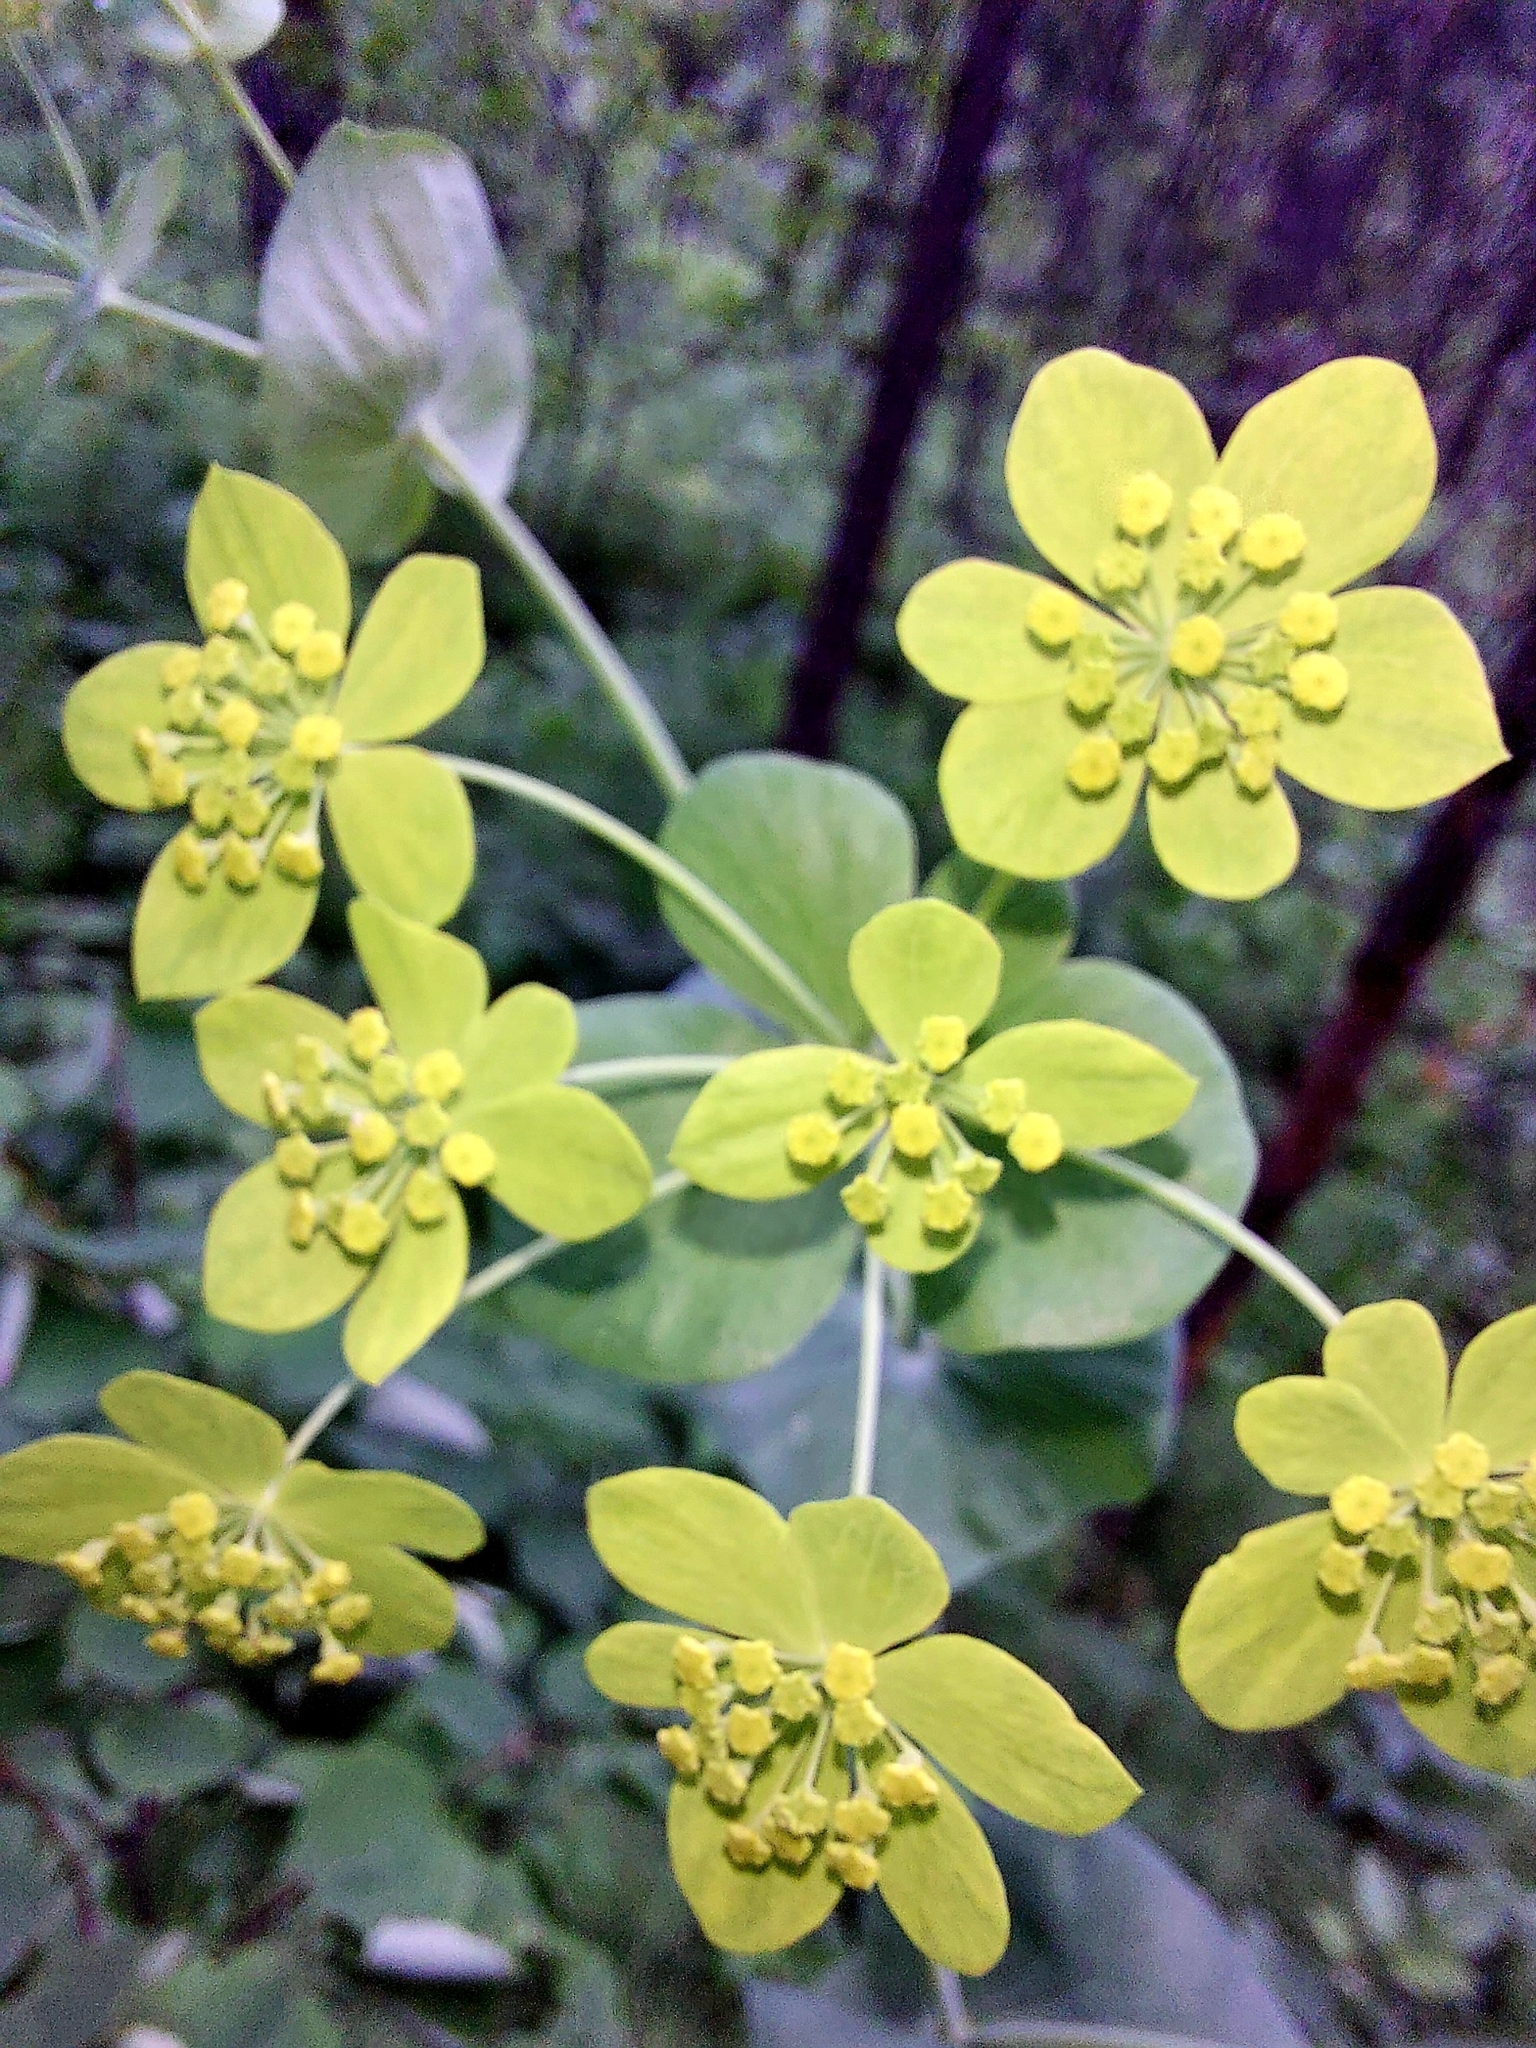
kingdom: Plantae
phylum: Tracheophyta
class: Magnoliopsida
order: Apiales
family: Apiaceae
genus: Bupleurum
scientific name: Bupleurum aureum
